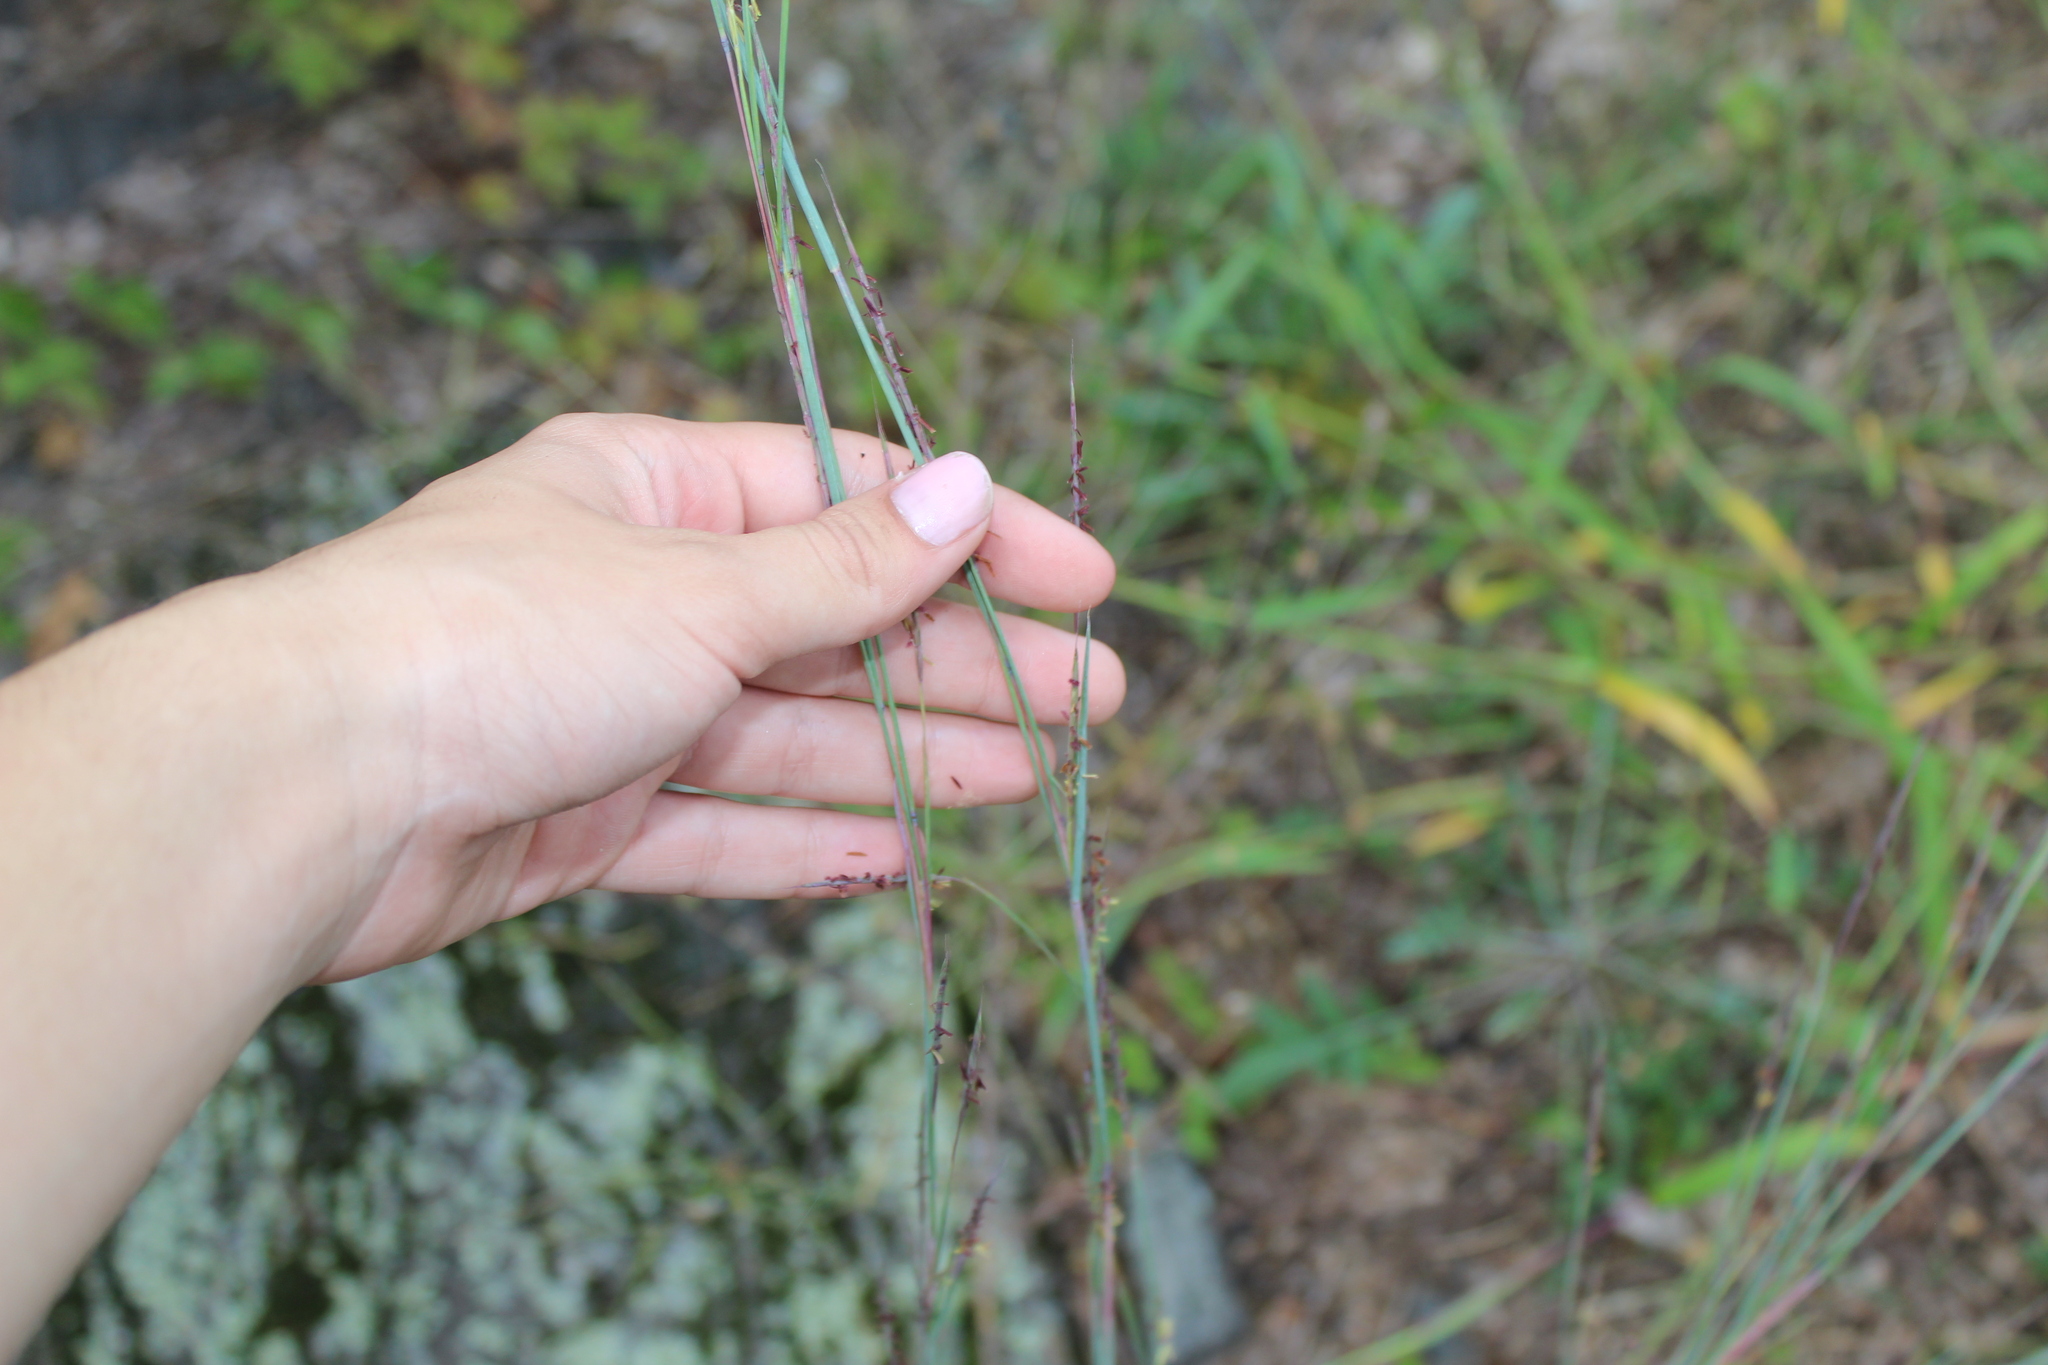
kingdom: Plantae
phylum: Tracheophyta
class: Liliopsida
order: Poales
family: Poaceae
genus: Schizachyrium
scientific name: Schizachyrium scoparium
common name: Little bluestem
